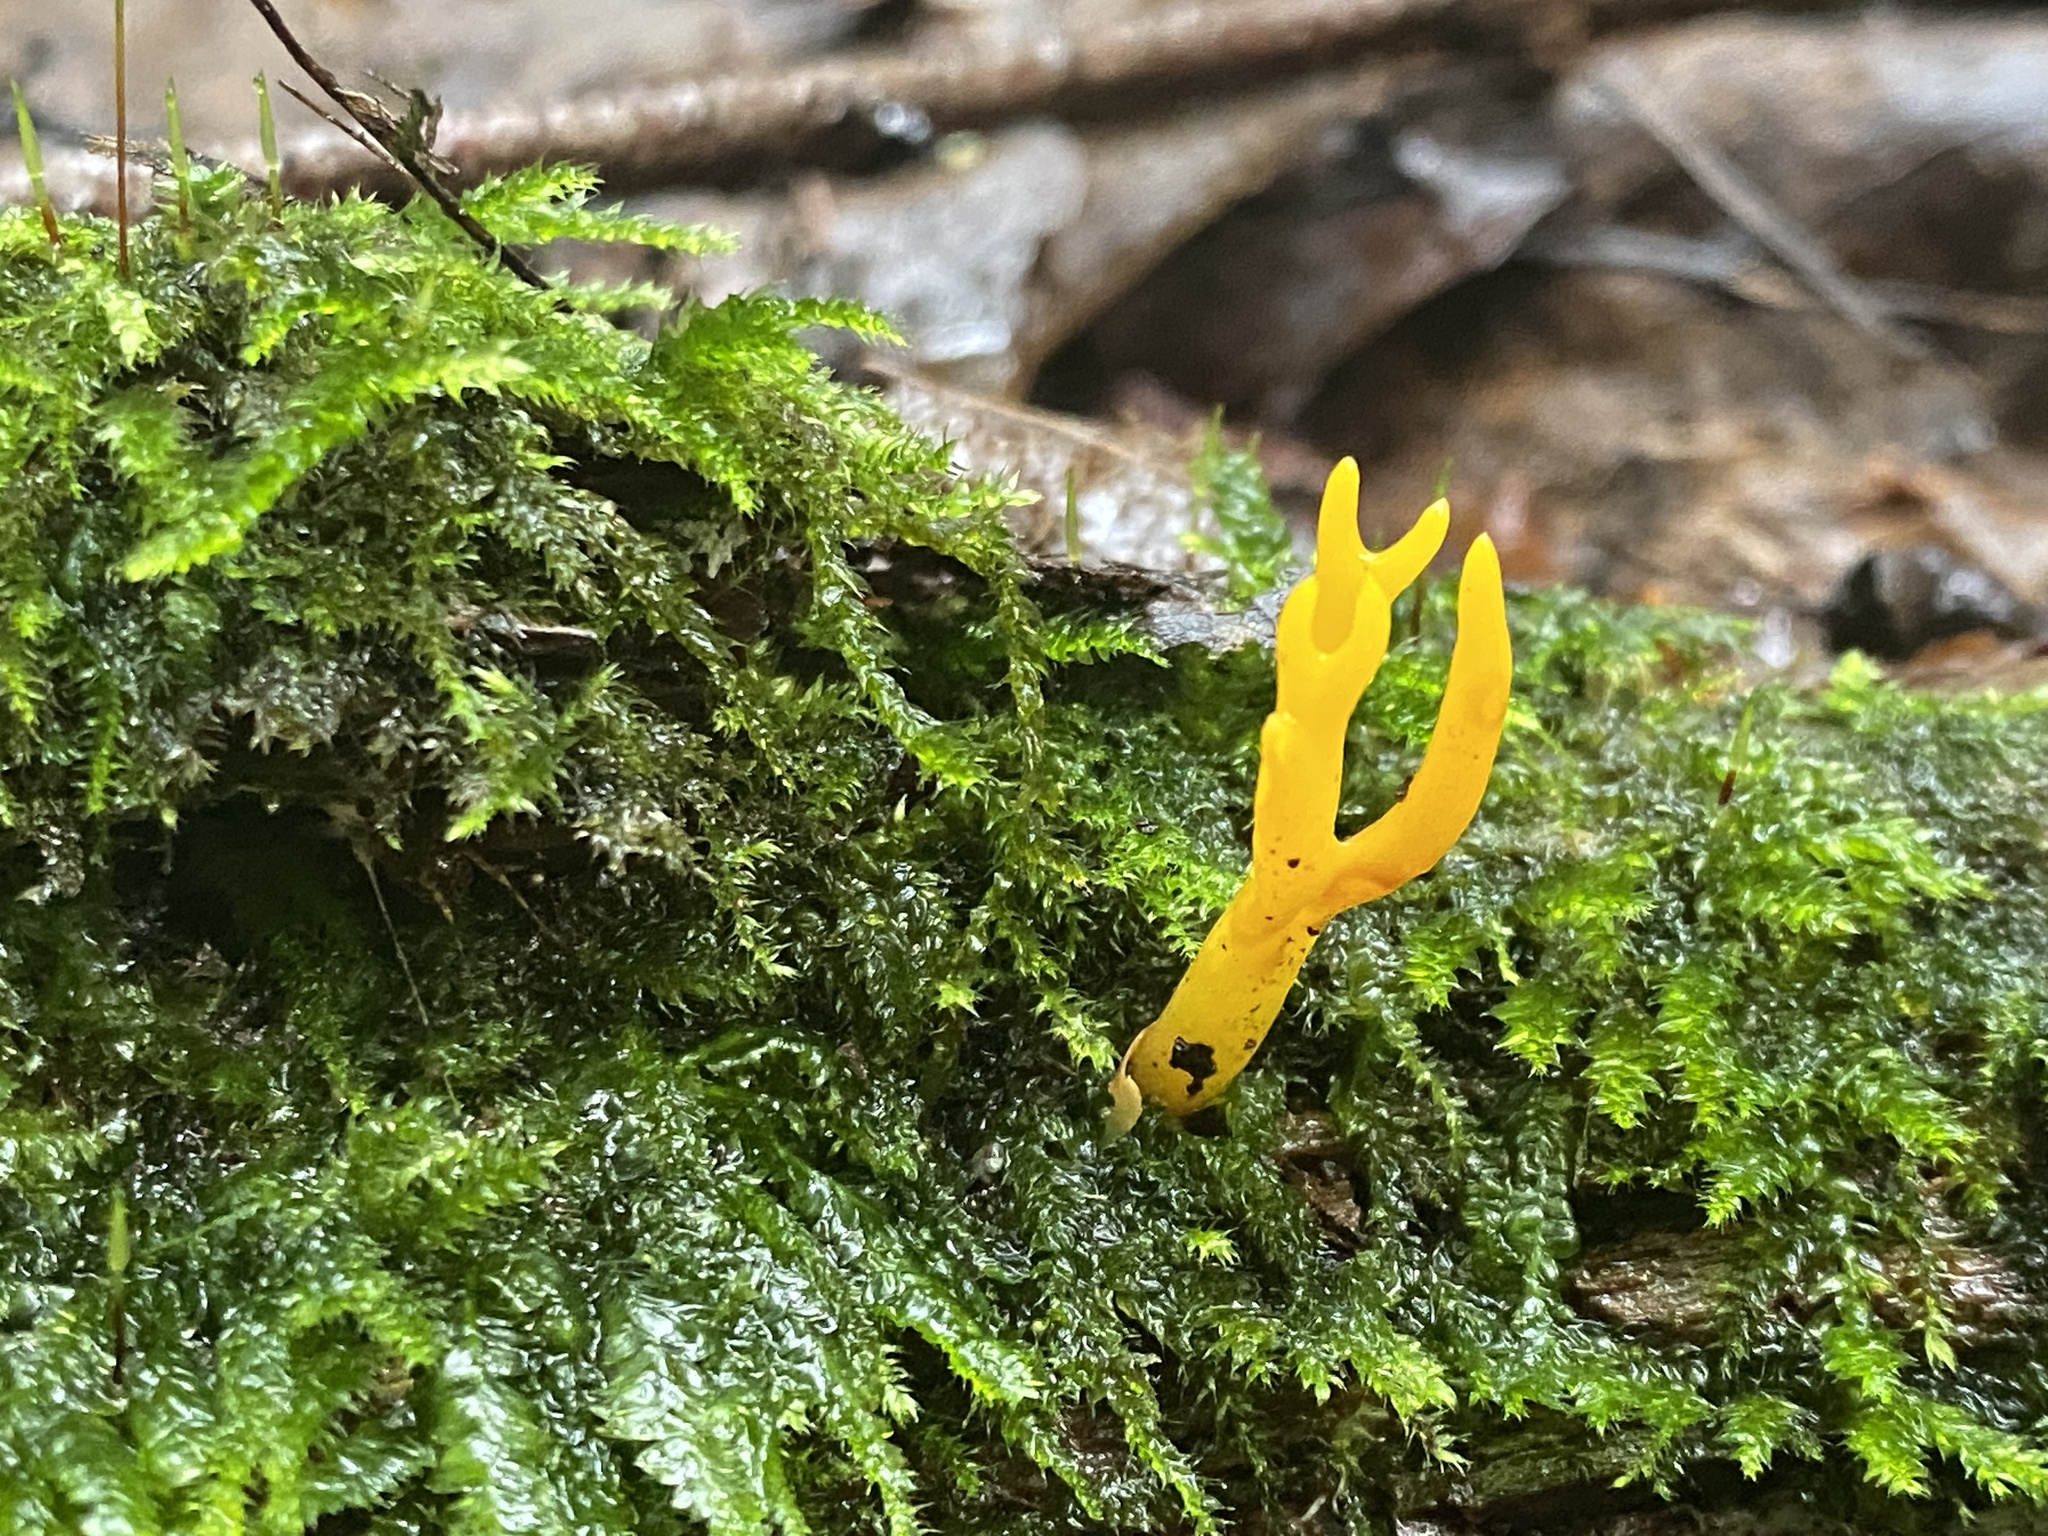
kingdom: Fungi
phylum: Basidiomycota
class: Dacrymycetes
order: Dacrymycetales
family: Dacrymycetaceae
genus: Calocera
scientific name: Calocera viscosa
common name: Yellow stagshorn
